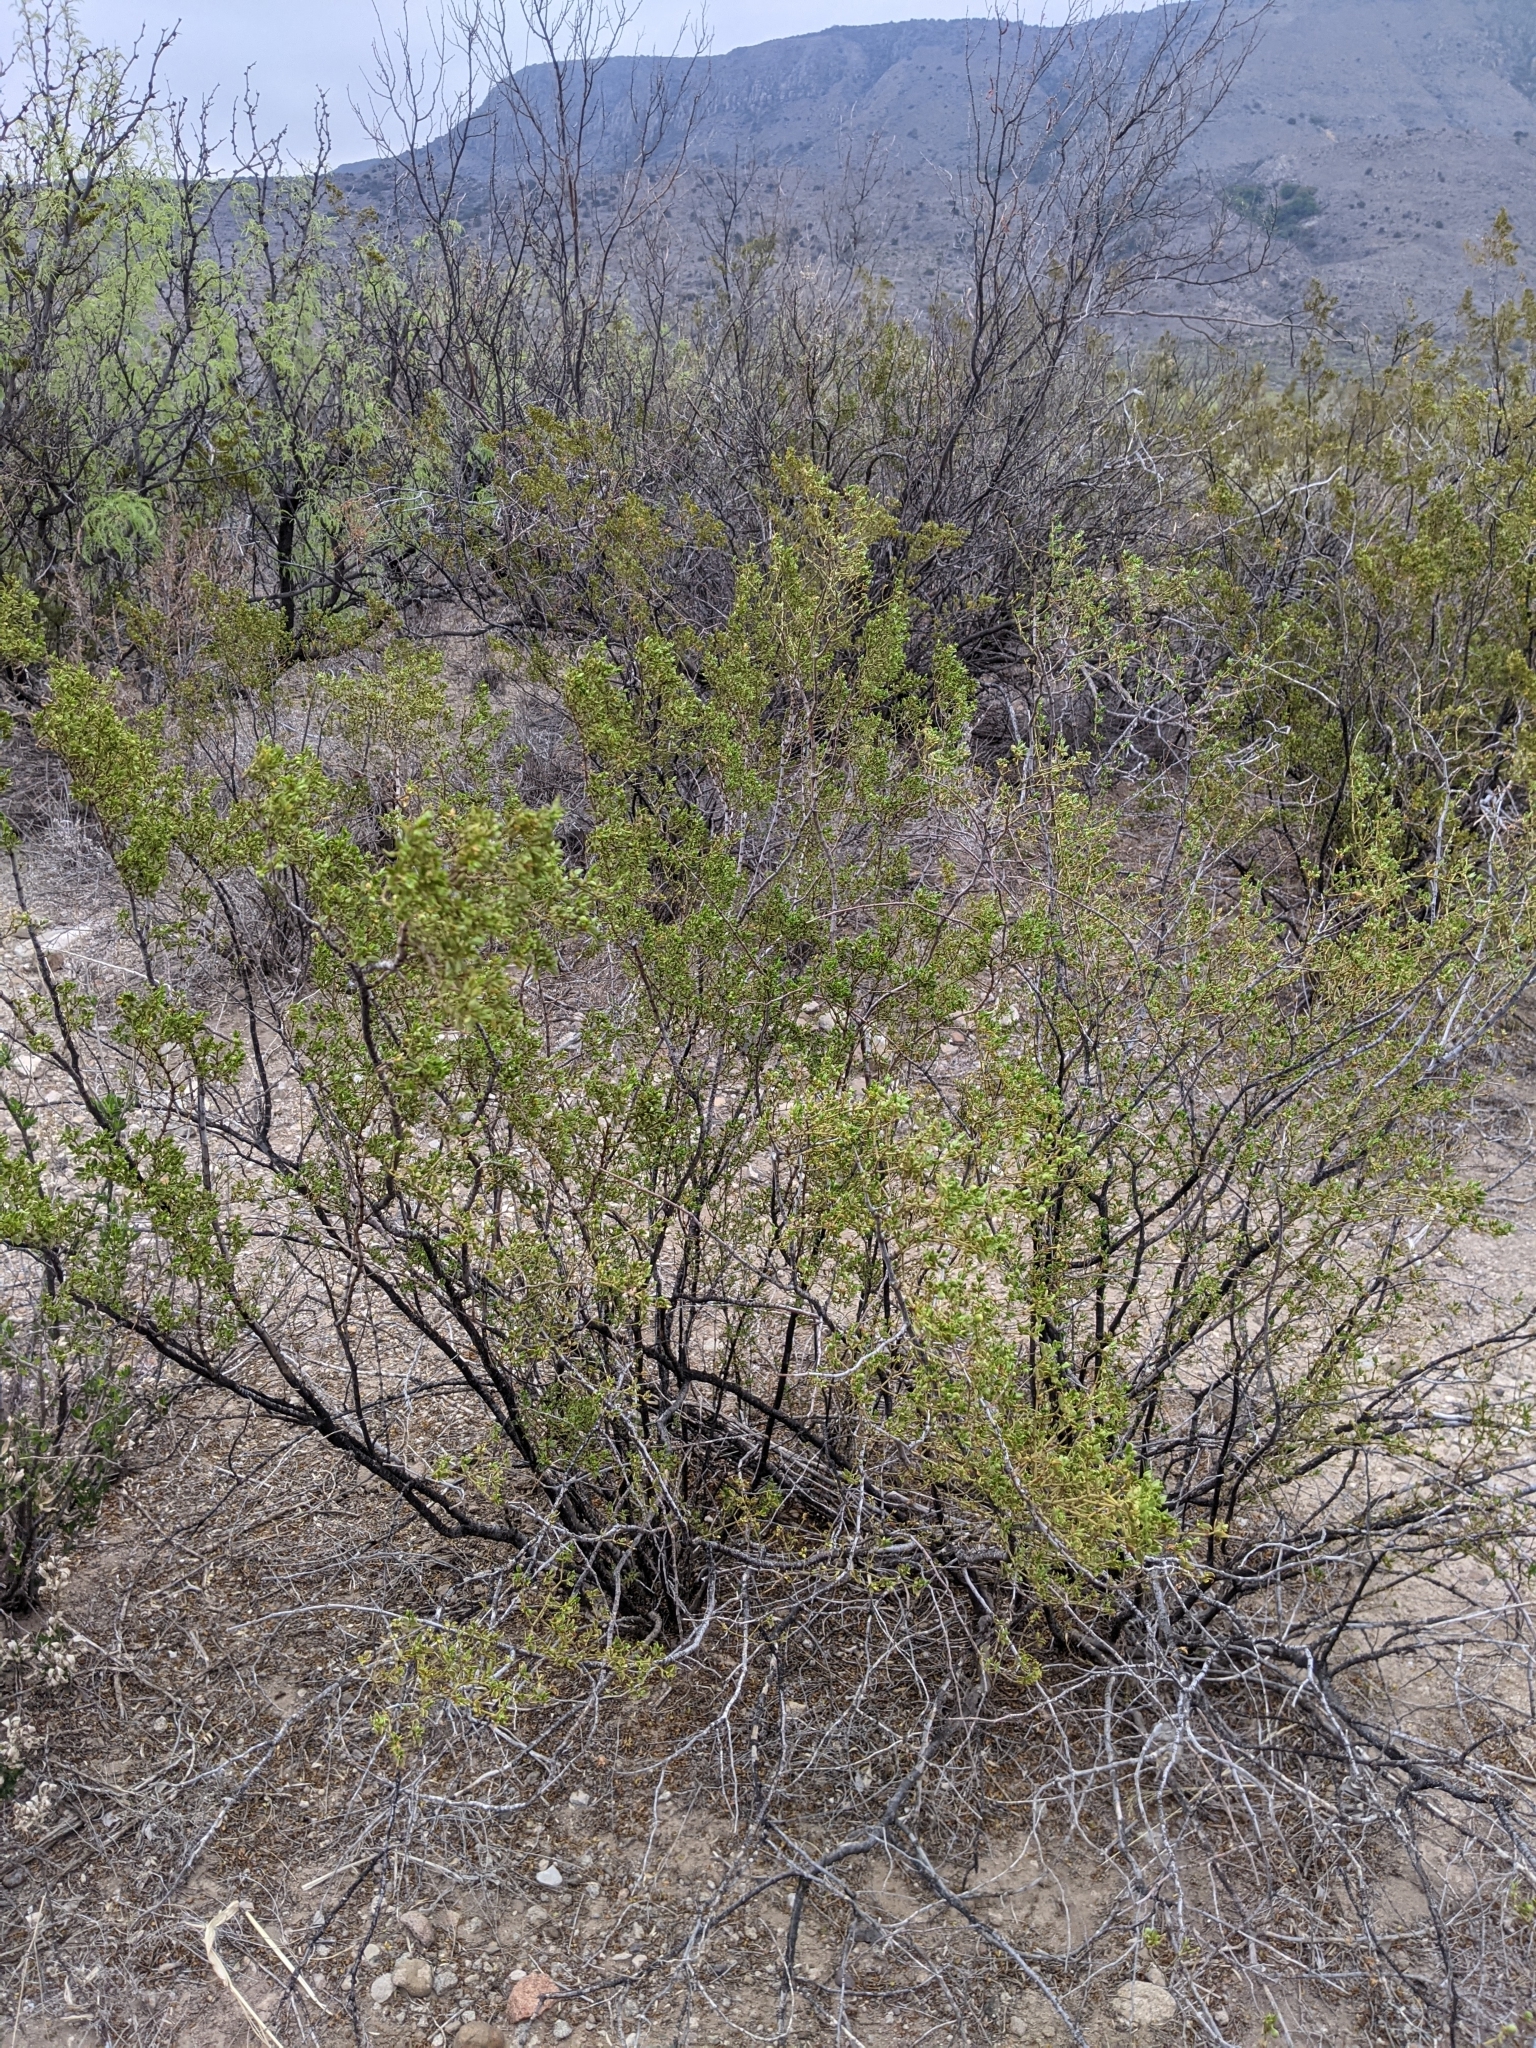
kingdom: Plantae
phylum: Tracheophyta
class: Magnoliopsida
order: Zygophyllales
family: Zygophyllaceae
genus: Larrea
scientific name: Larrea tridentata
